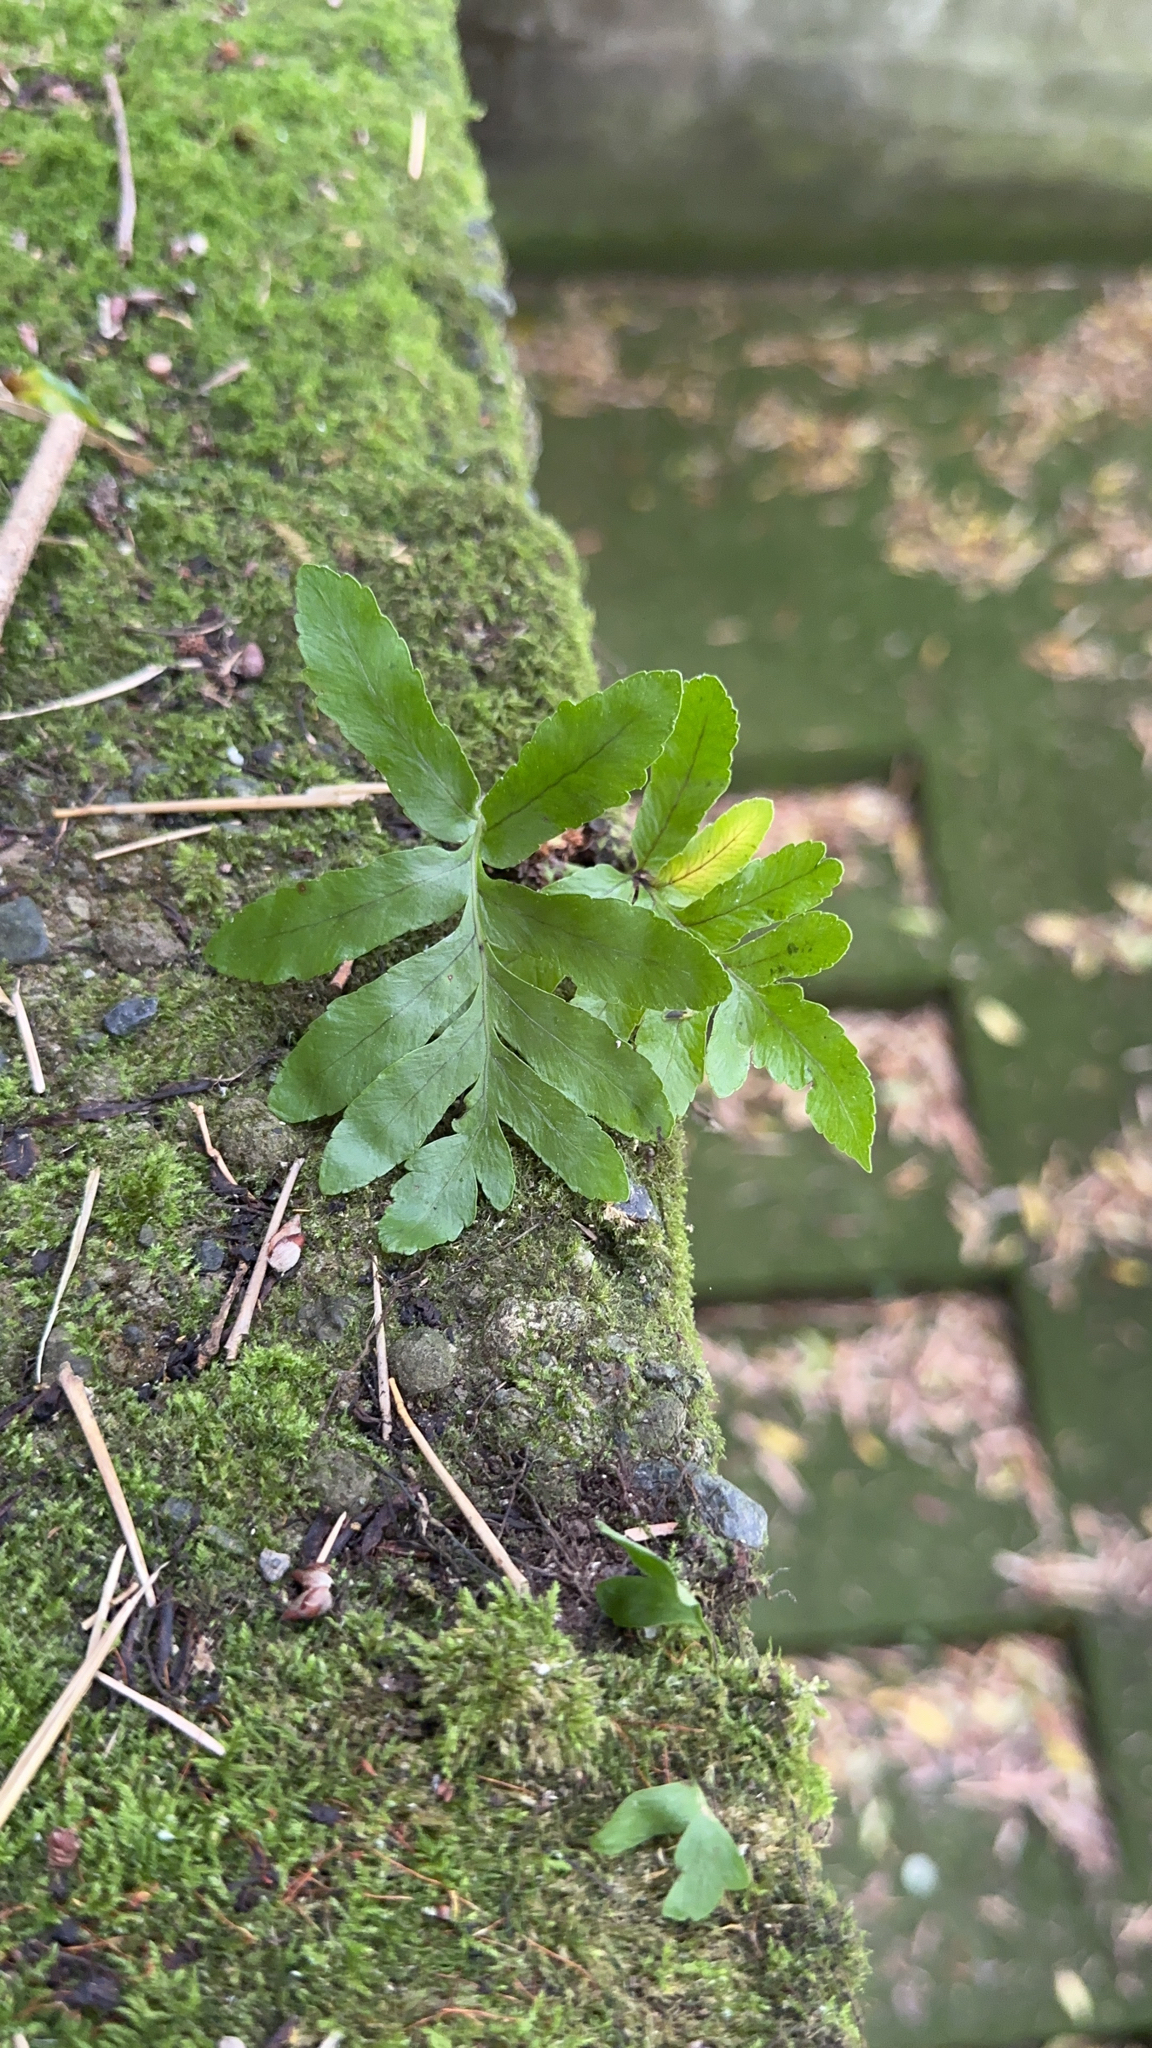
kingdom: Plantae
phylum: Tracheophyta
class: Polypodiopsida
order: Polypodiales
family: Polypodiaceae
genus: Polypodium
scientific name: Polypodium macaronesicum
